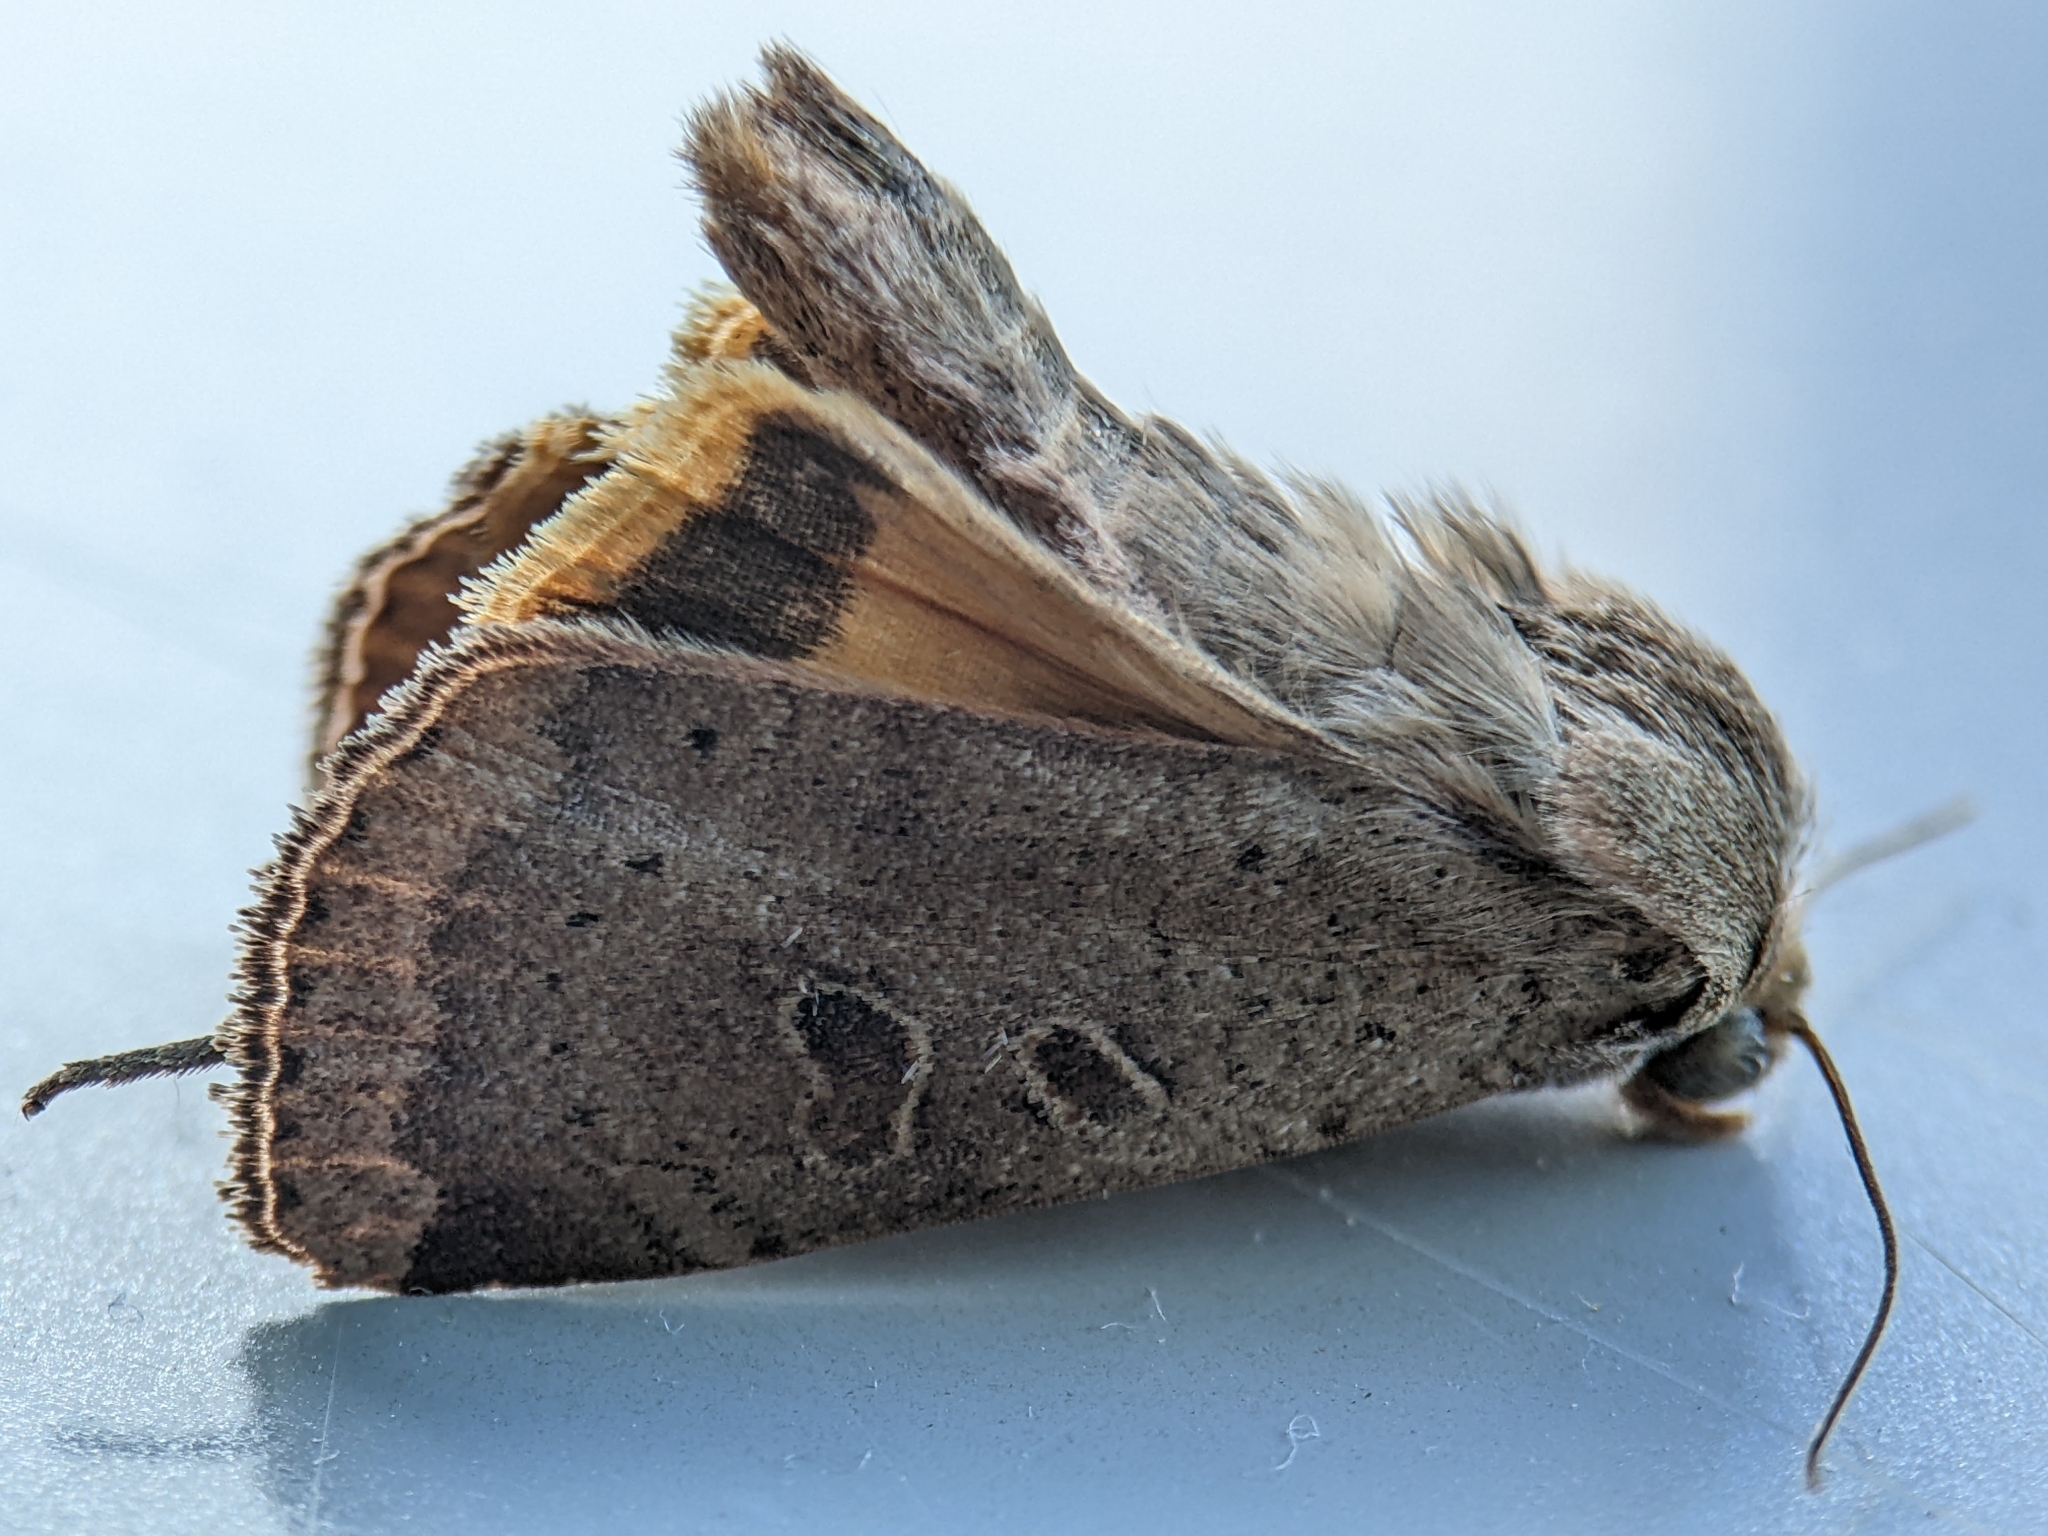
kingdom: Animalia
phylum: Arthropoda
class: Insecta
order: Lepidoptera
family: Noctuidae
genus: Noctua
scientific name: Noctua comes
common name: Lesser yellow underwing
